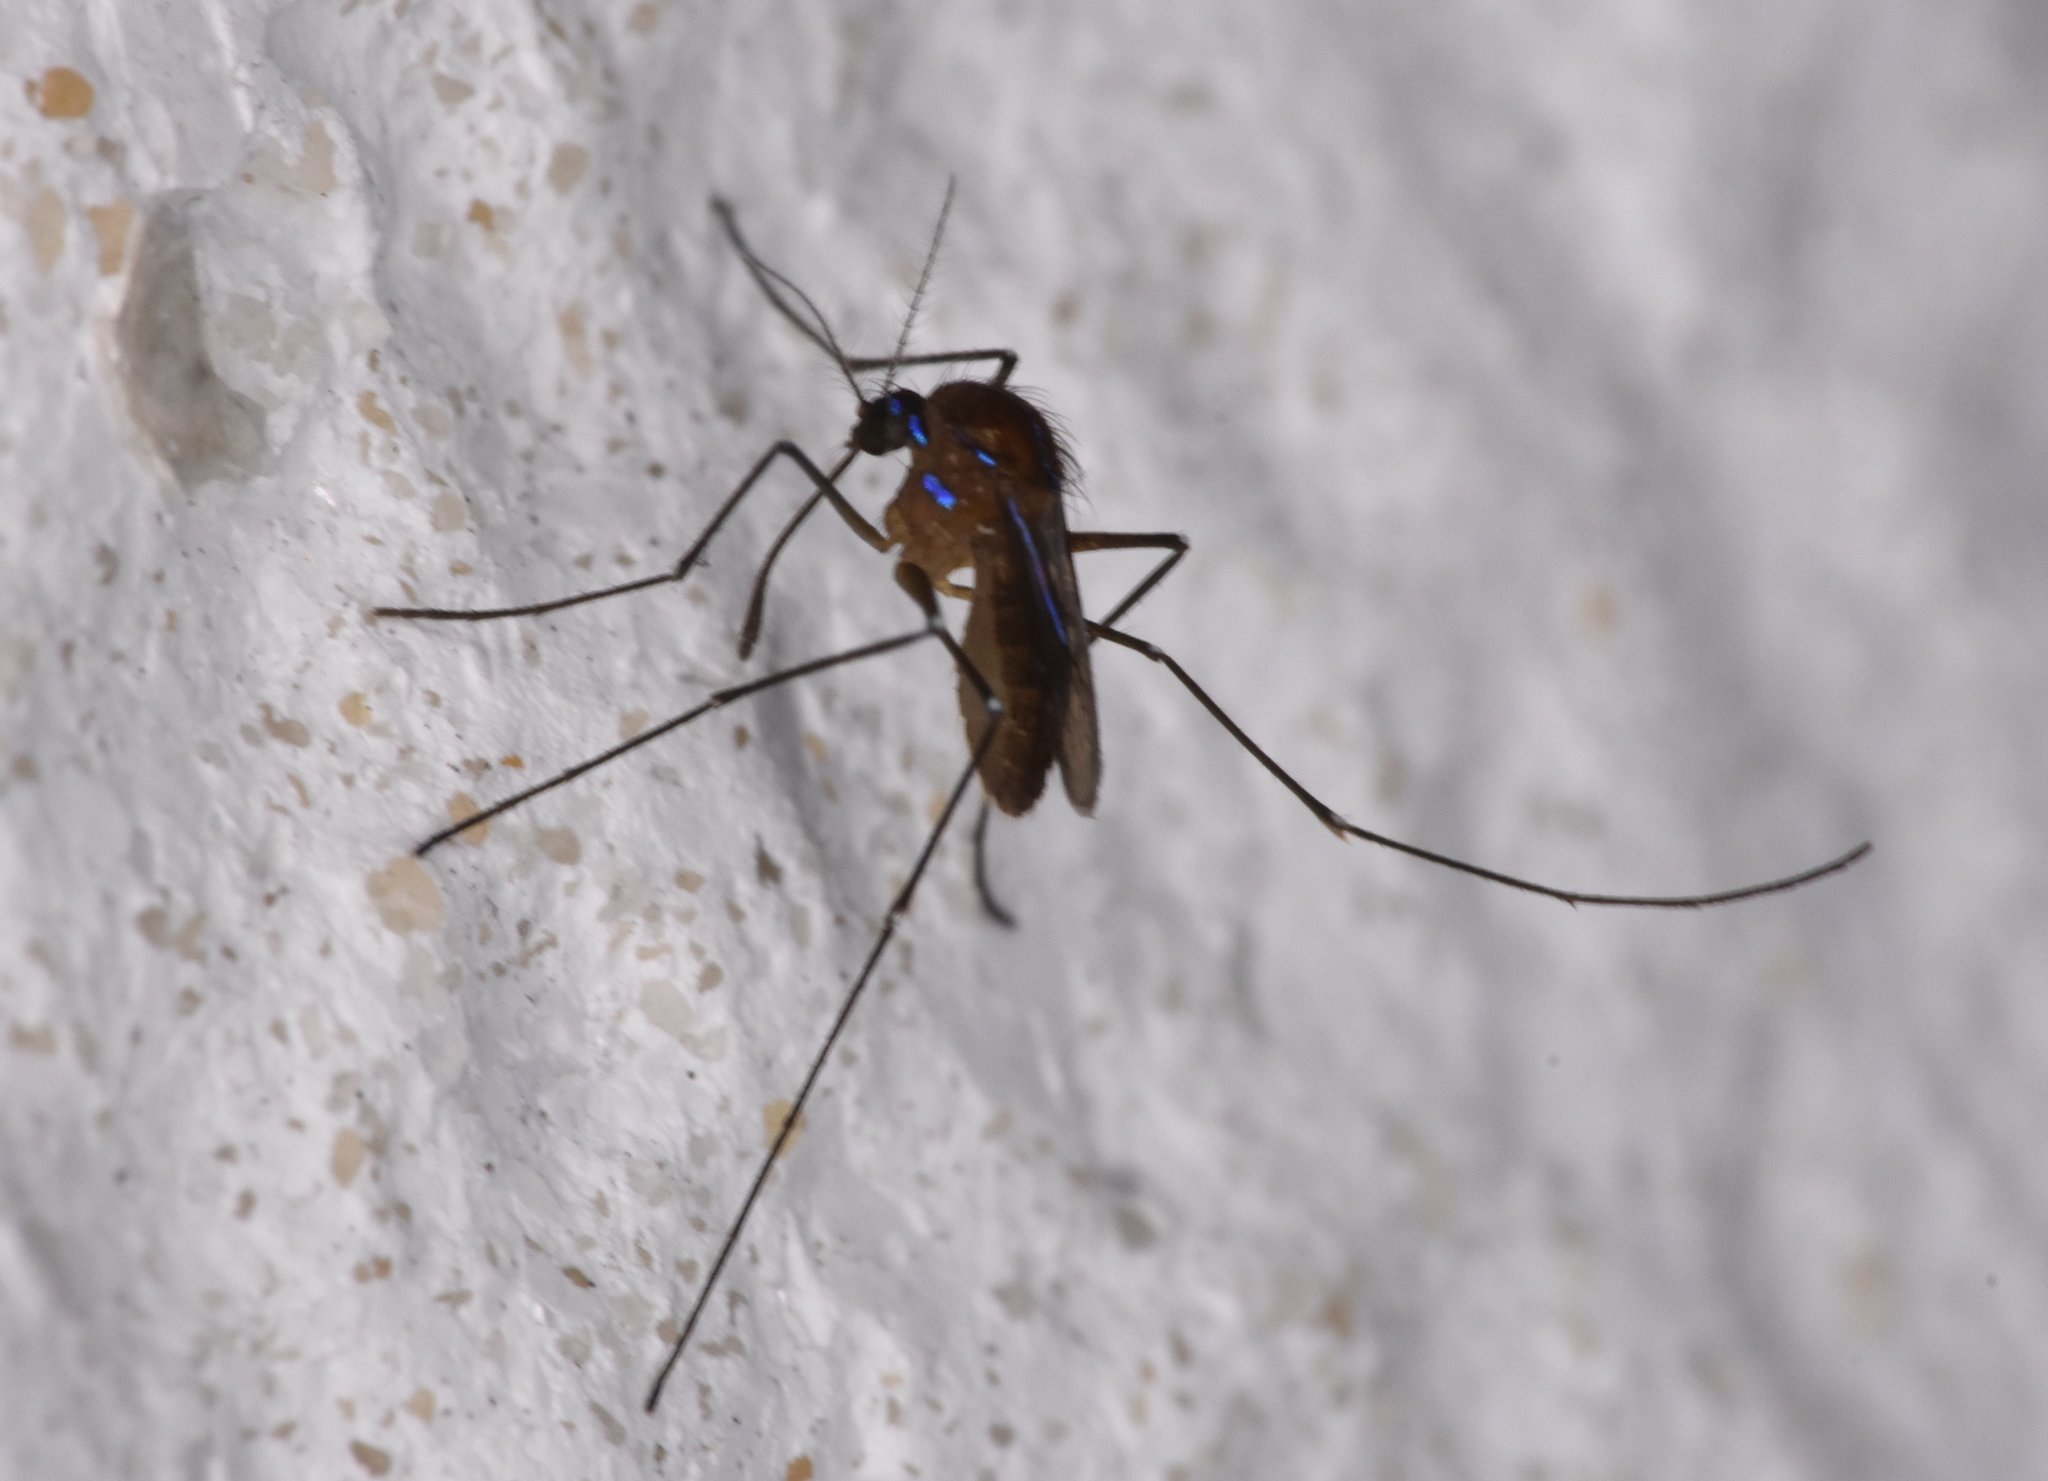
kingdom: Animalia
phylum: Arthropoda
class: Insecta
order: Diptera
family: Culicidae
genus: Uranotaenia
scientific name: Uranotaenia sapphirina
